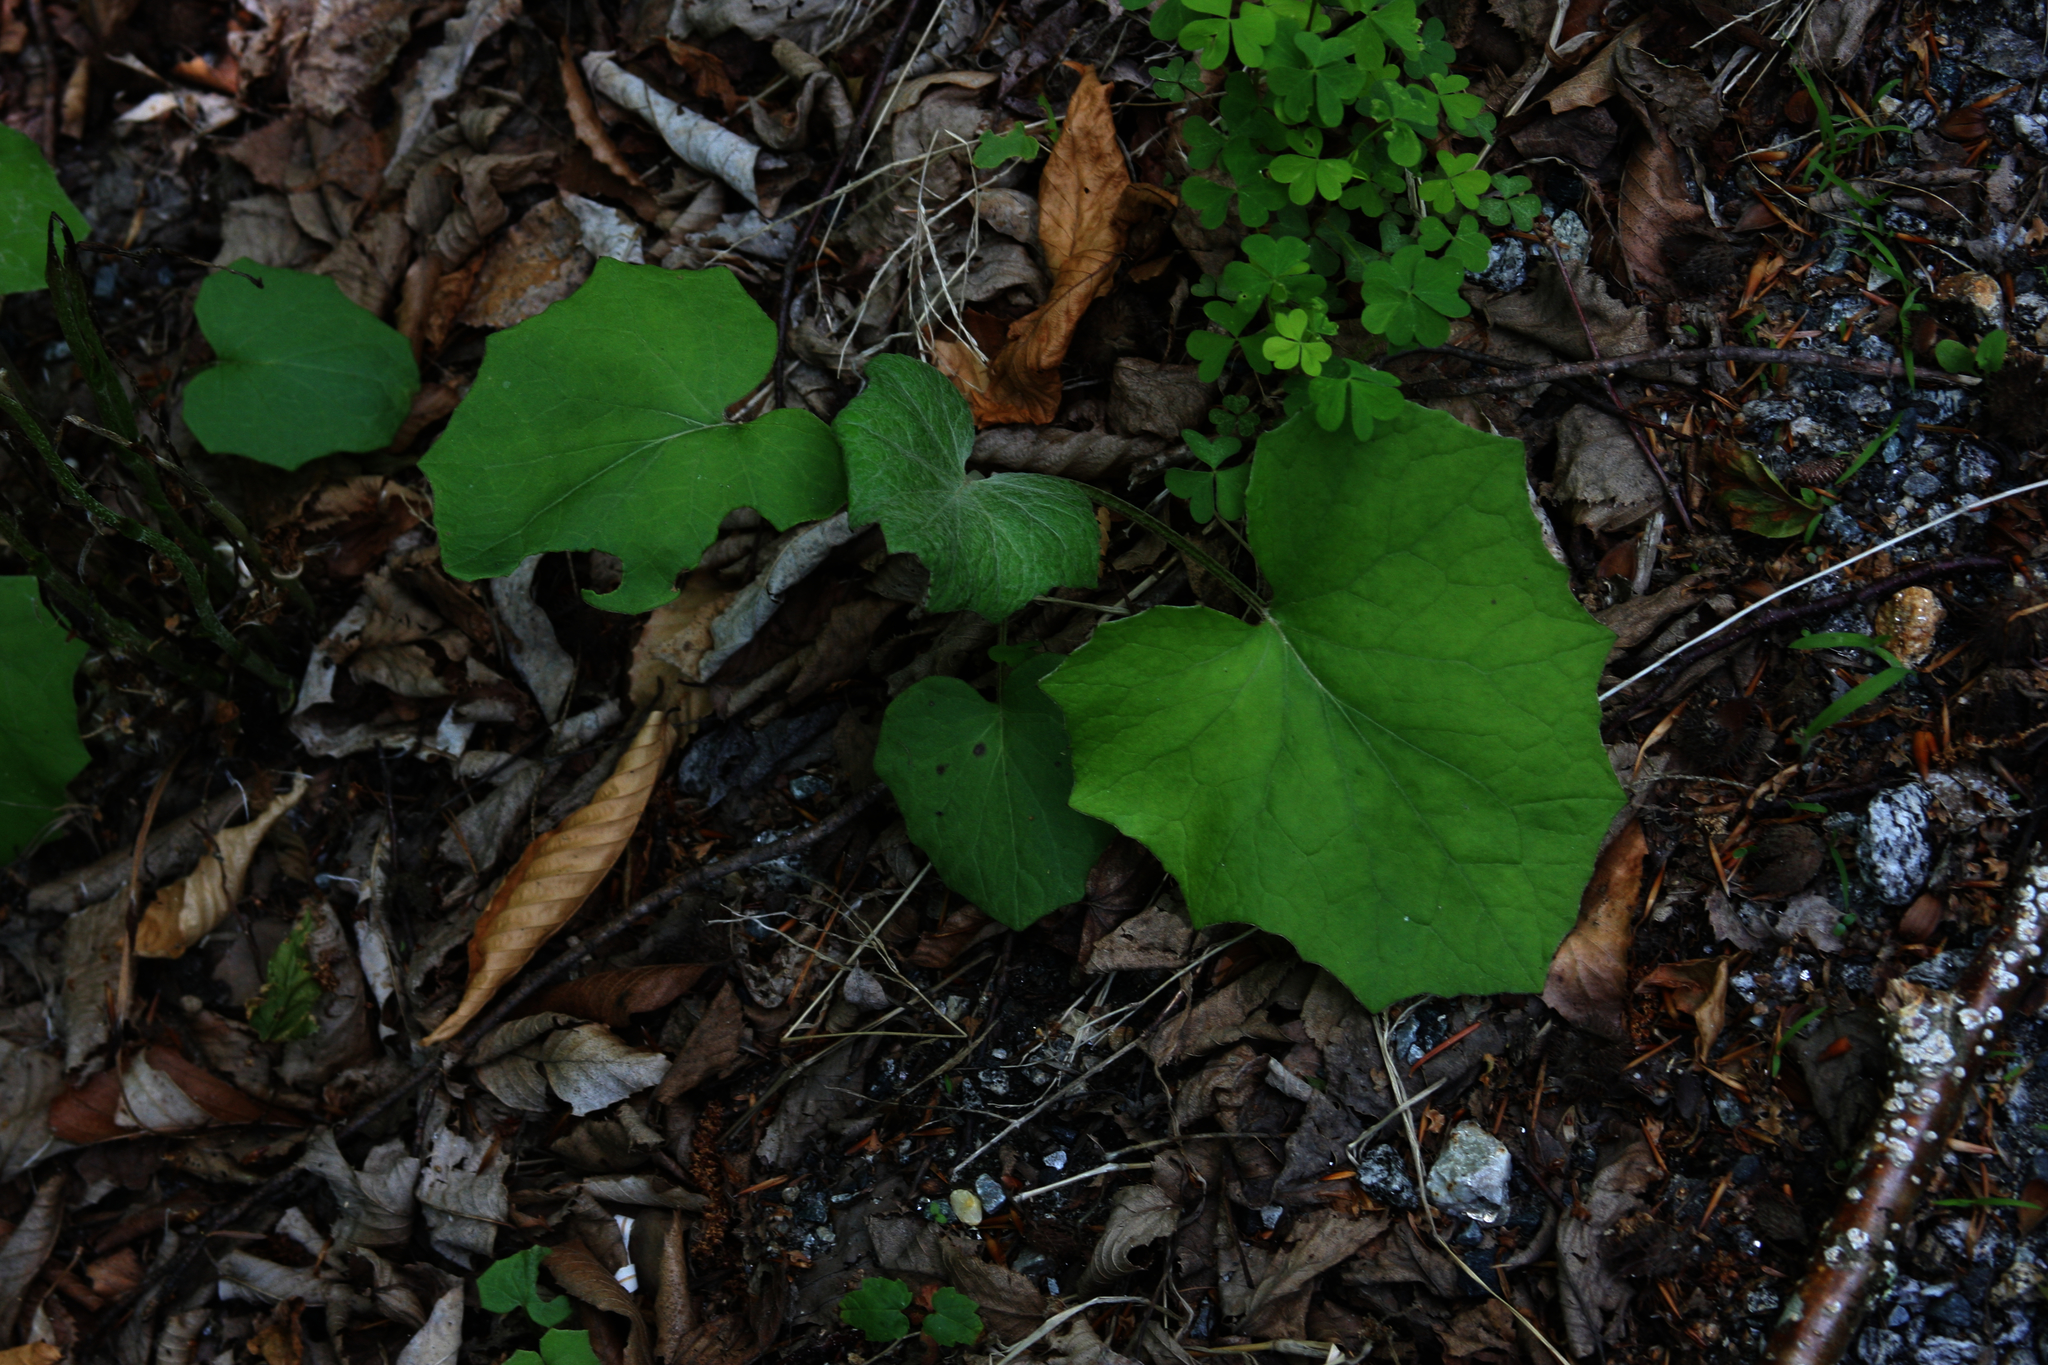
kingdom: Plantae
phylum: Tracheophyta
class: Magnoliopsida
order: Asterales
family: Asteraceae
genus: Tussilago
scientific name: Tussilago farfara
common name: Coltsfoot
